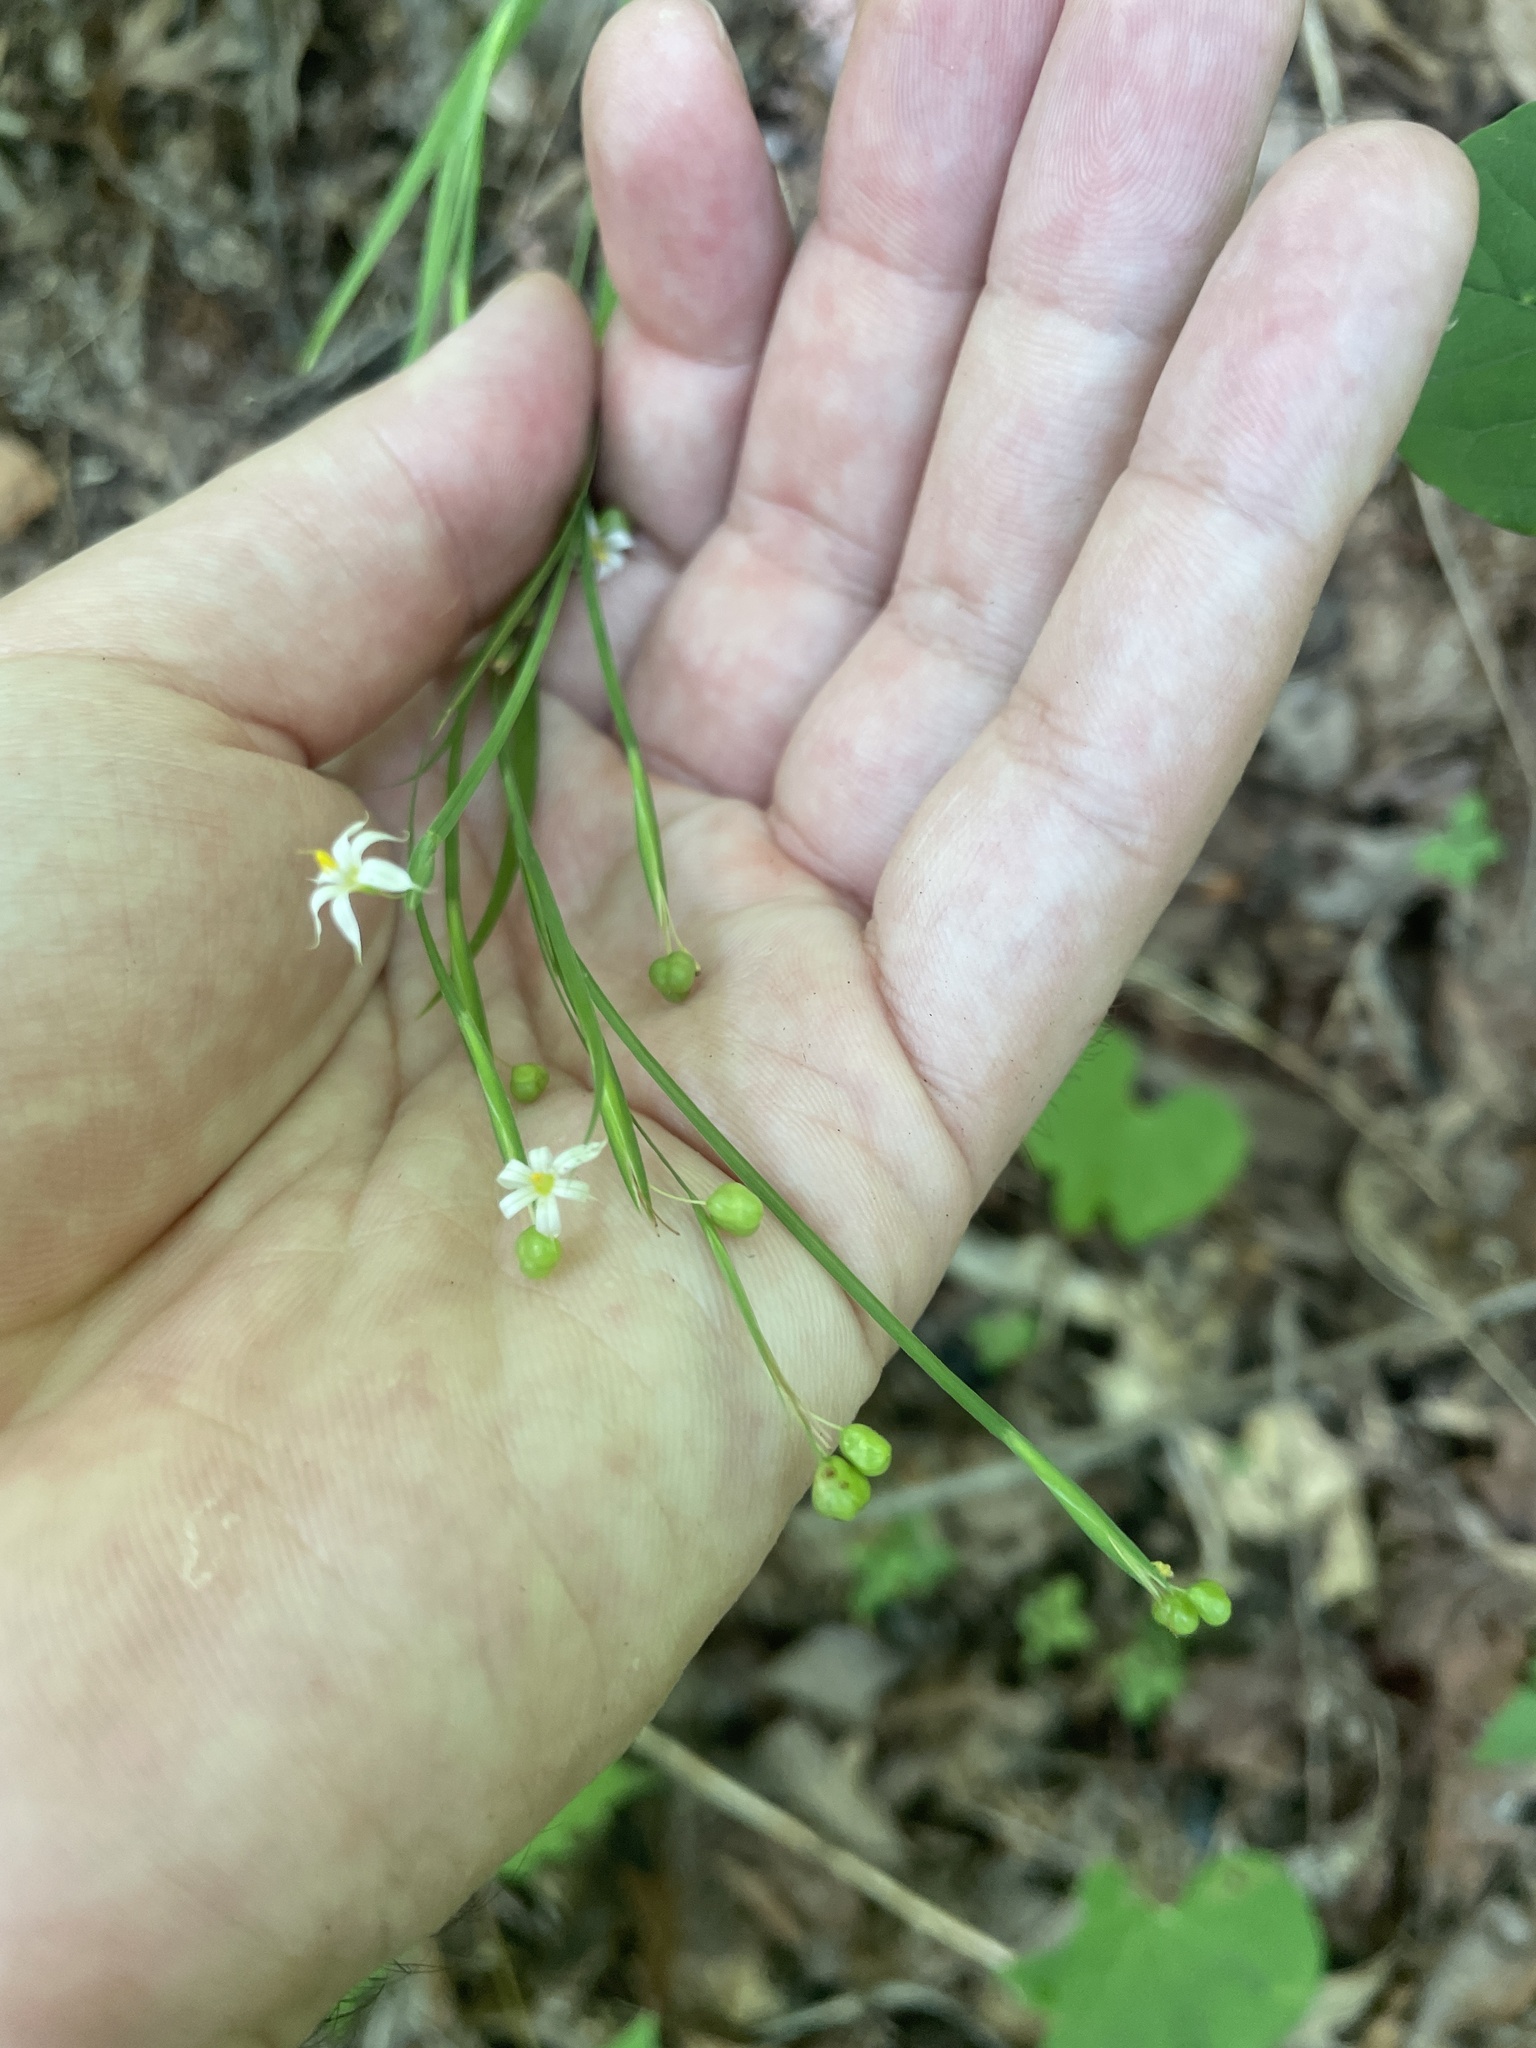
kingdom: Plantae
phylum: Tracheophyta
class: Liliopsida
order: Asparagales
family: Iridaceae
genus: Sisyrinchium
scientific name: Sisyrinchium dichotomum
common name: White irisette
